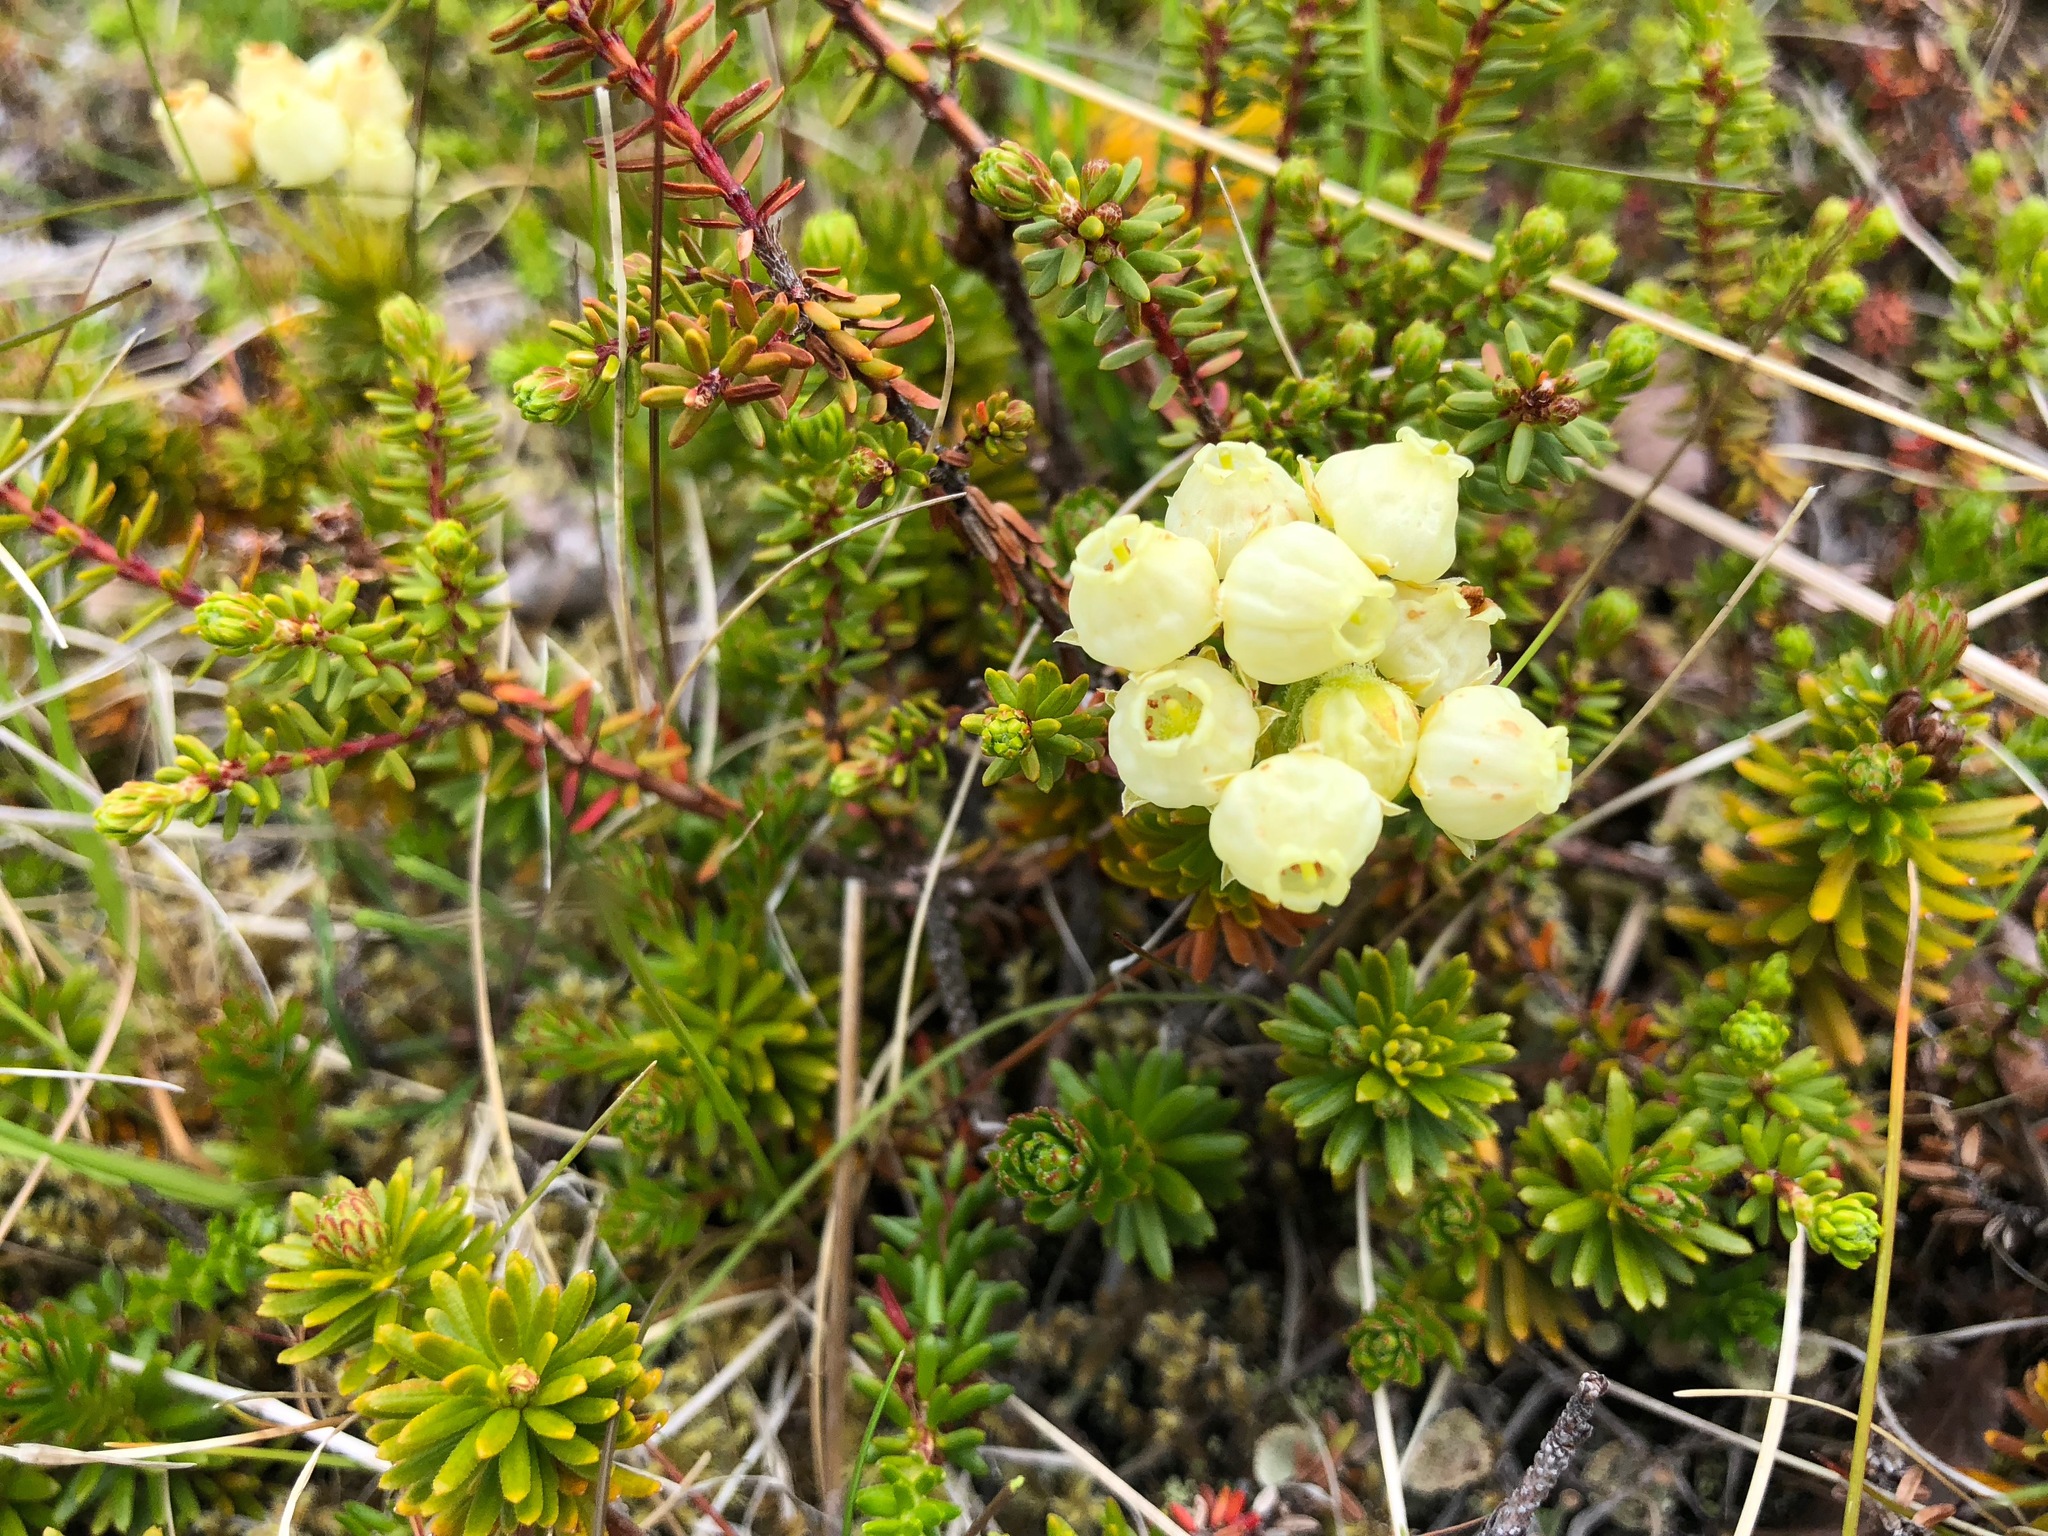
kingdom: Plantae
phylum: Tracheophyta
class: Magnoliopsida
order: Ericales
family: Ericaceae
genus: Phyllodoce
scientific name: Phyllodoce aleutica
